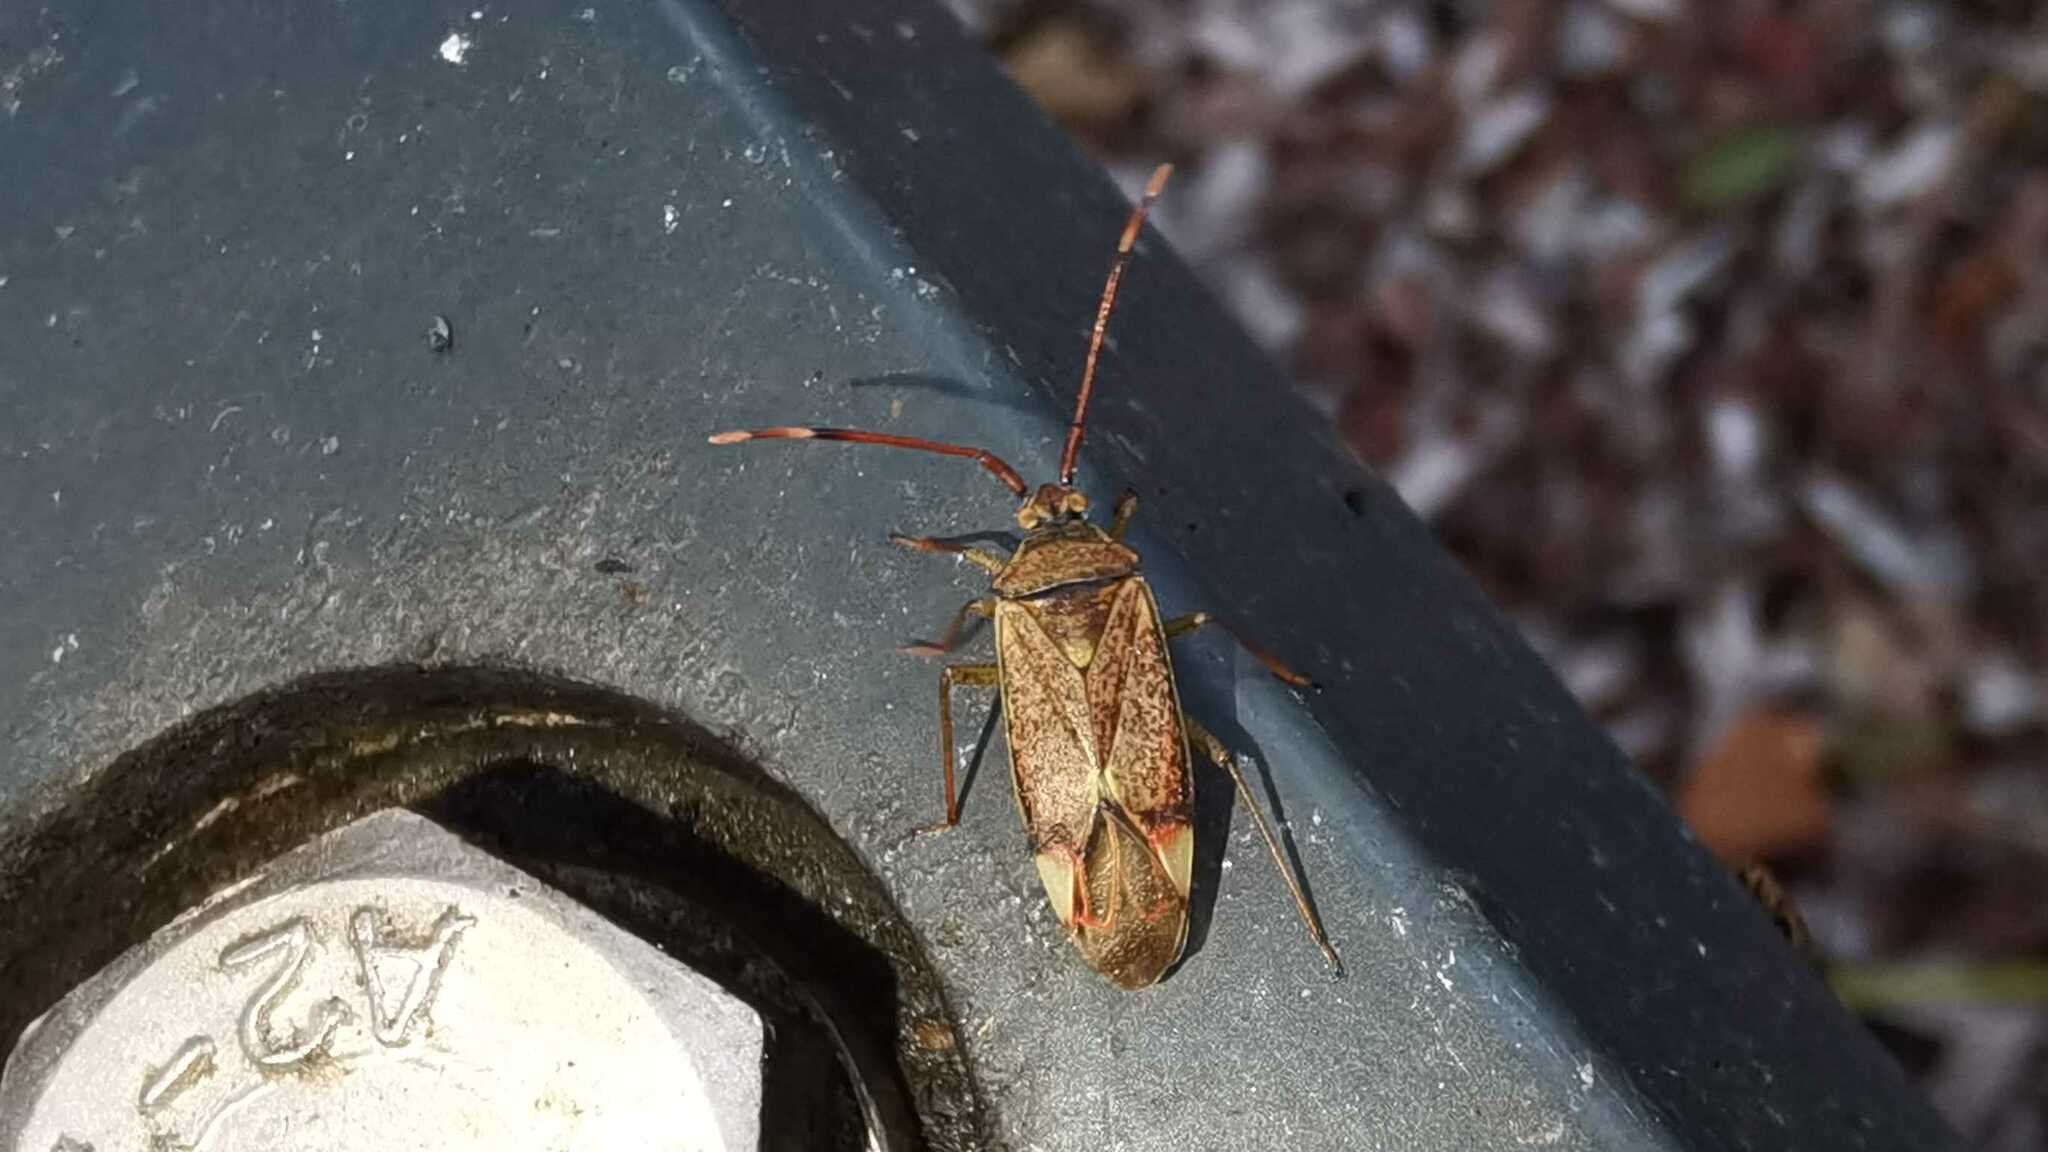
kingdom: Animalia
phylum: Arthropoda
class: Insecta
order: Hemiptera
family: Miridae
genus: Pantilius
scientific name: Pantilius tunicatus
